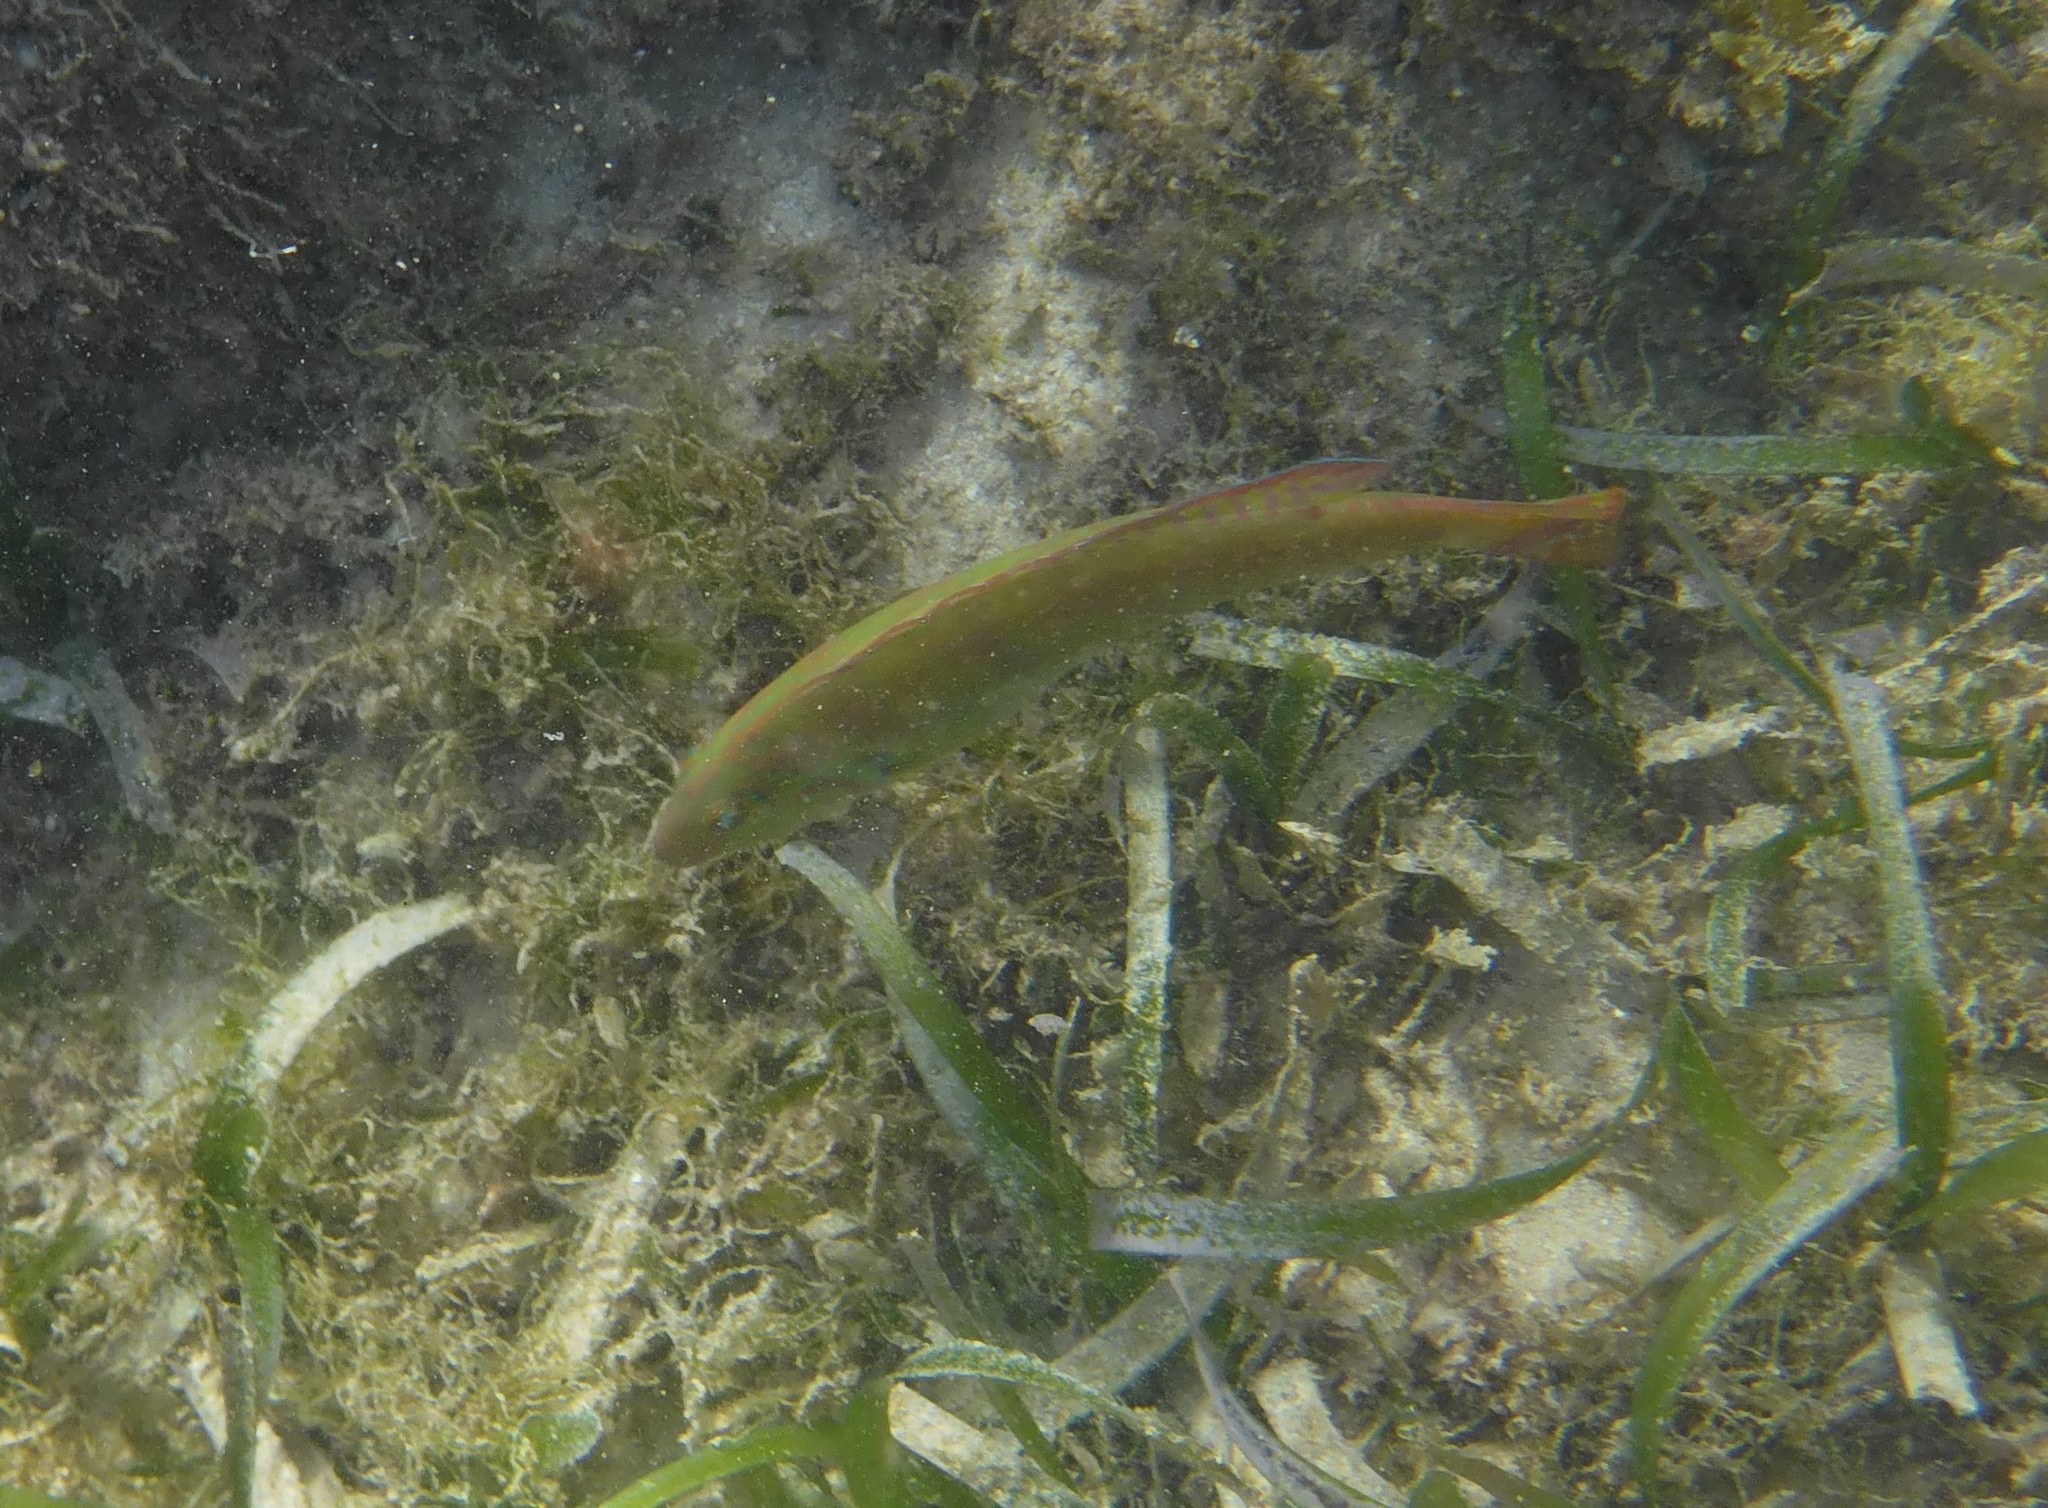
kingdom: Animalia
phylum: Chordata
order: Perciformes
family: Labridae
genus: Halichoeres
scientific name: Halichoeres poeyi
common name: Blackear wrasse
